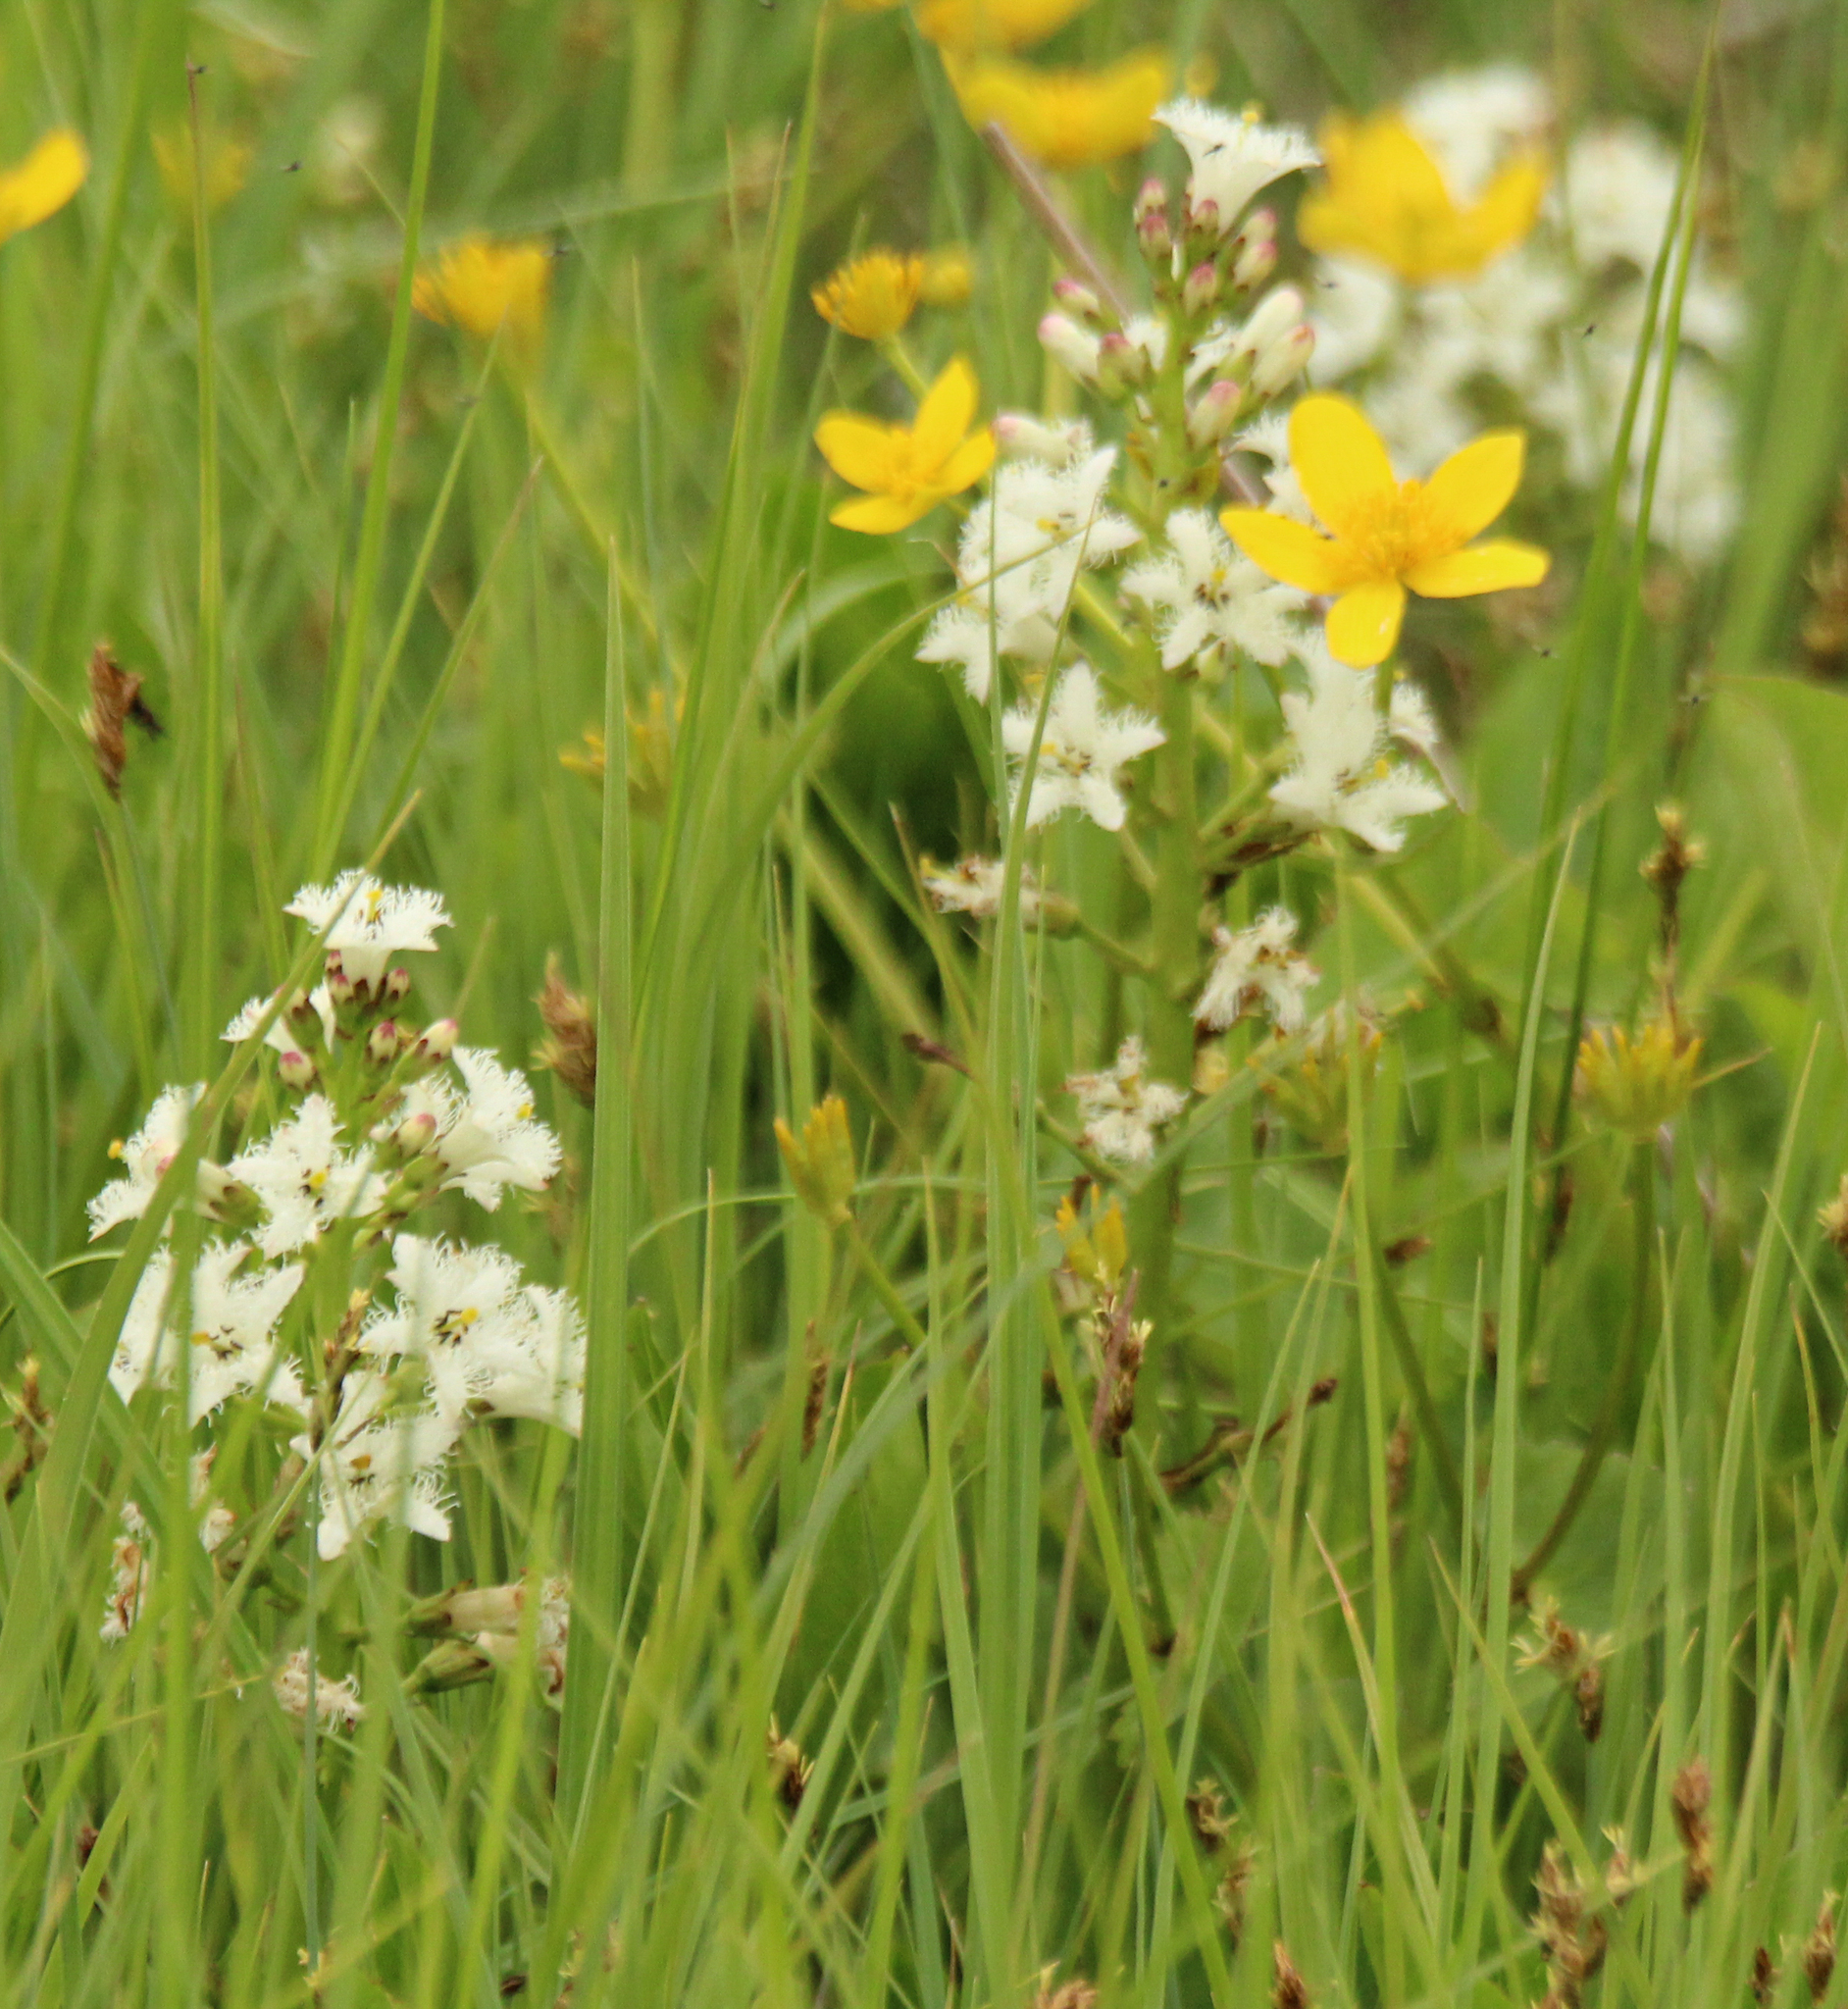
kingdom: Plantae
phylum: Tracheophyta
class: Magnoliopsida
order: Asterales
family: Menyanthaceae
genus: Menyanthes
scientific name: Menyanthes trifoliata
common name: Bogbean
